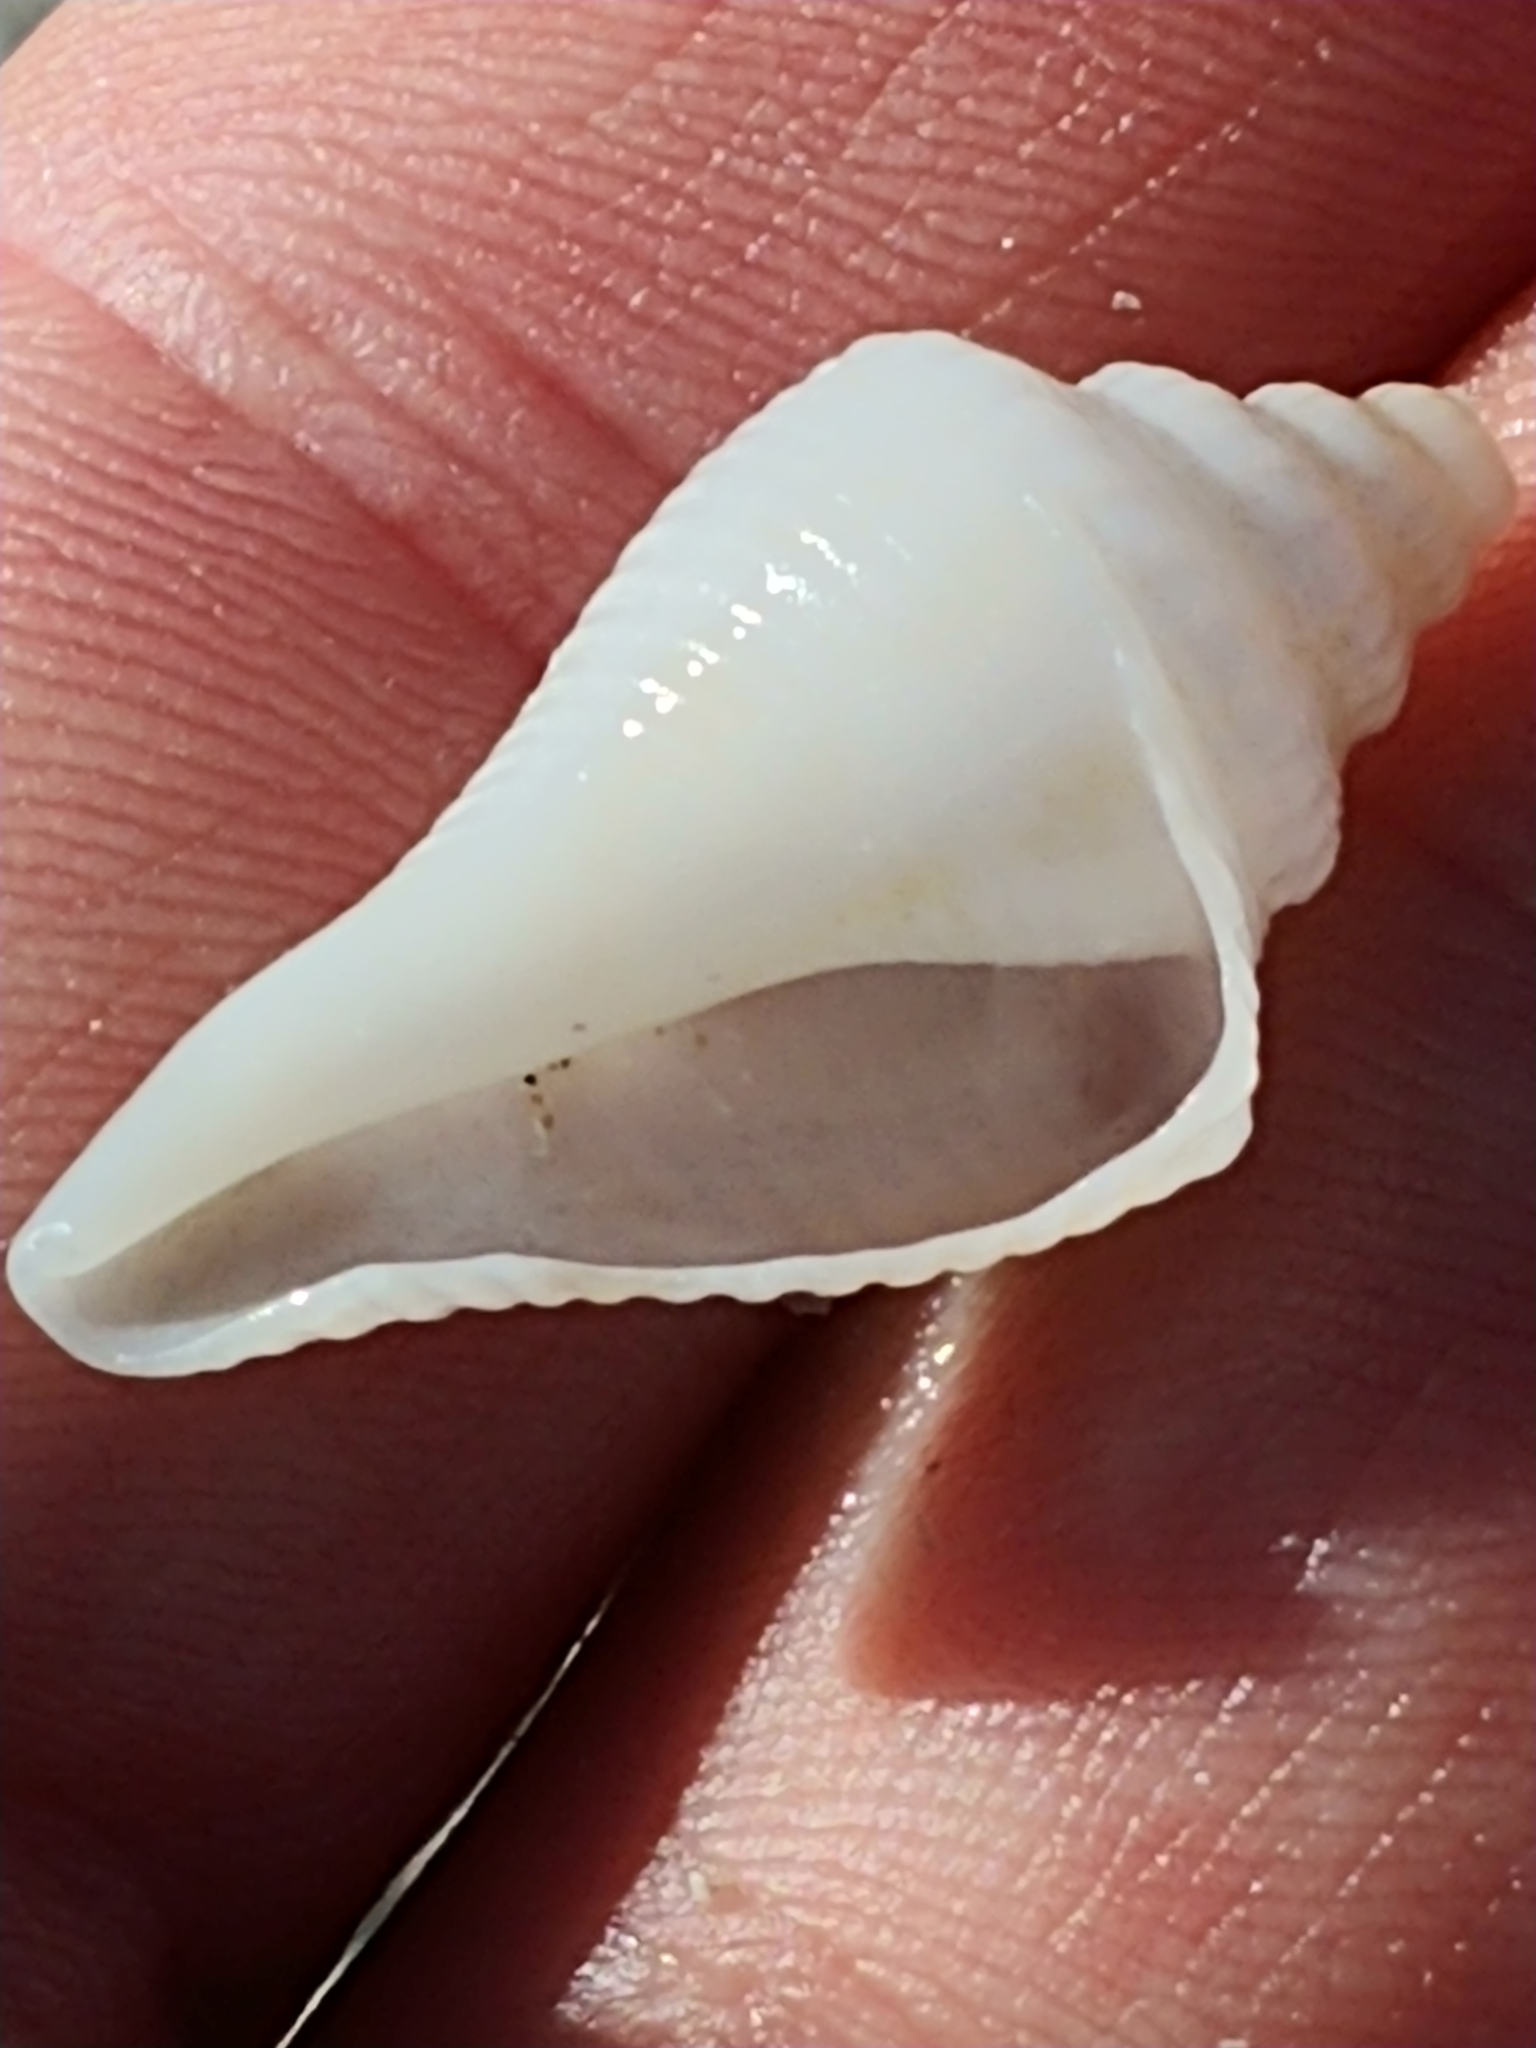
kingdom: Animalia
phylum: Mollusca
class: Gastropoda
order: Littorinimorpha
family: Strombidae
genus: Strombus
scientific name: Strombus alatus
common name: Florida fighting conch
